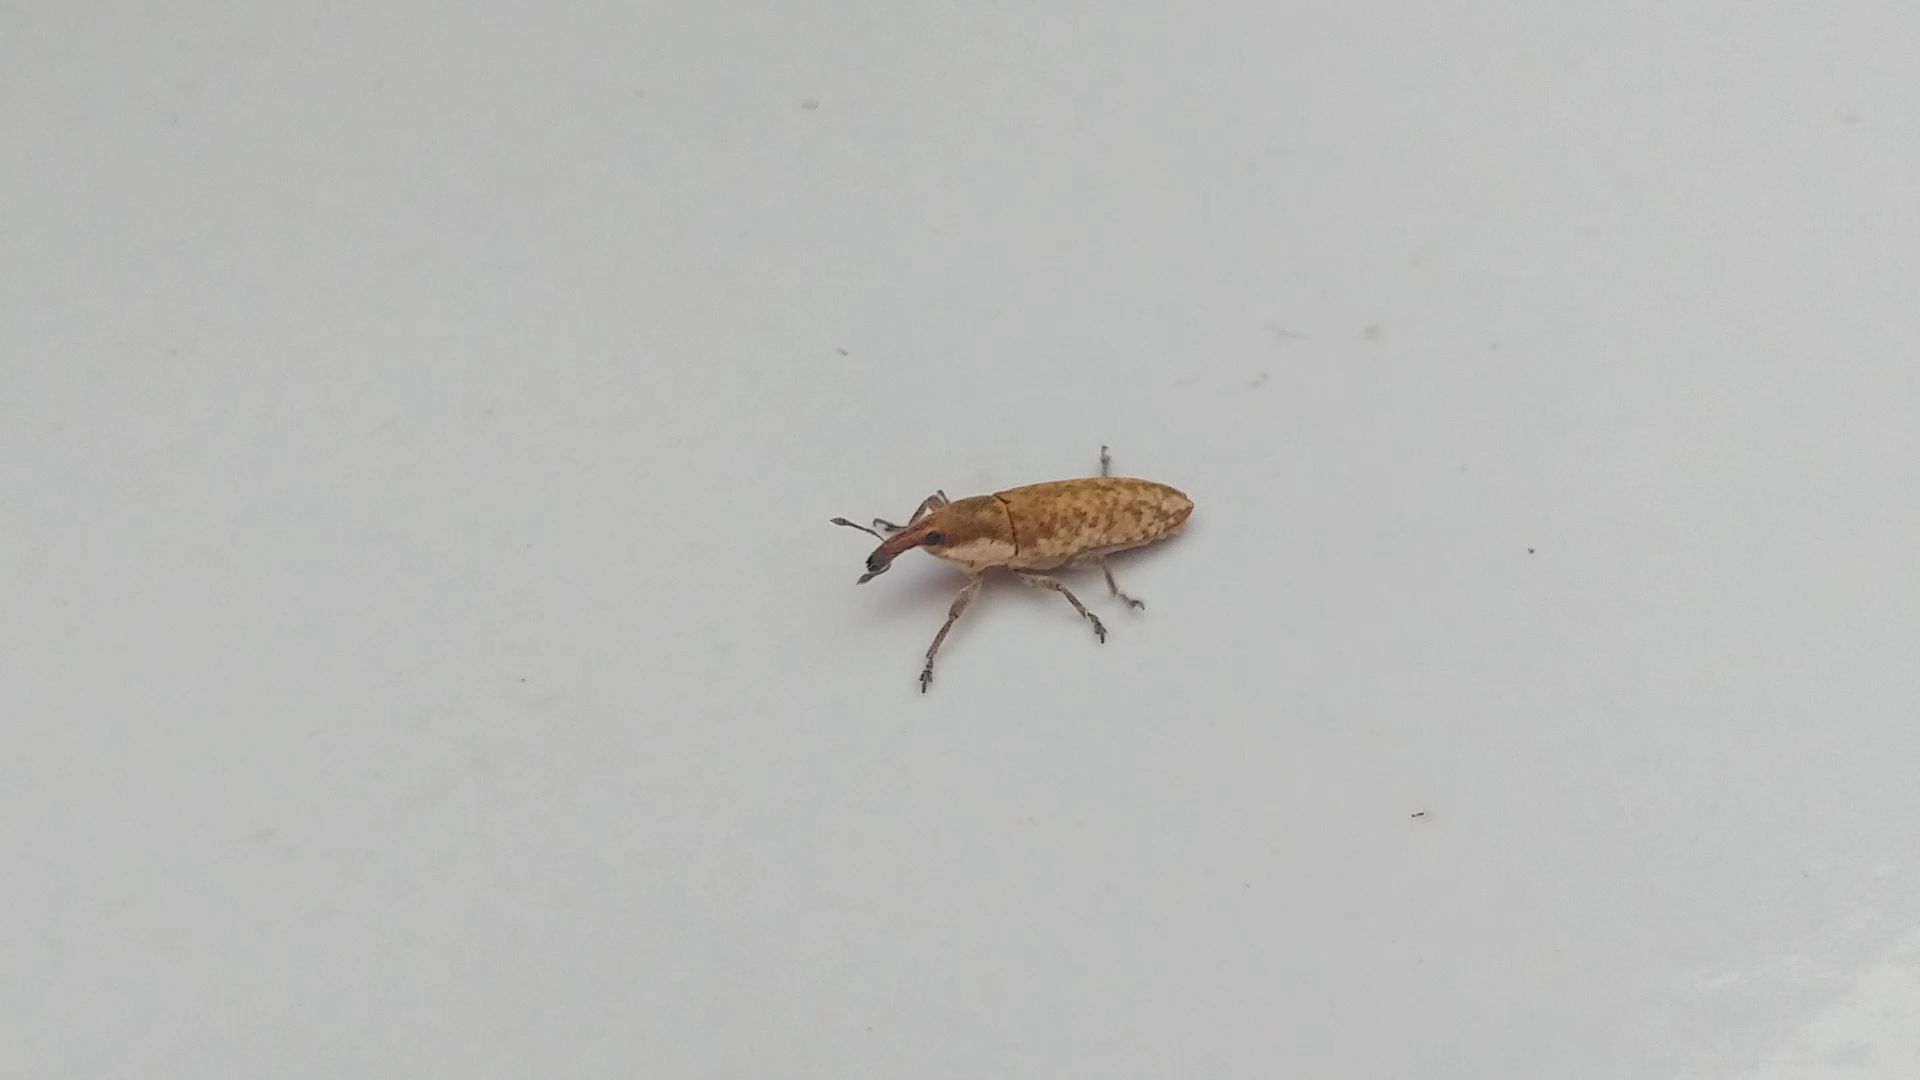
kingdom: Animalia
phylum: Arthropoda
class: Insecta
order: Coleoptera
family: Curculionidae
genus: Lixus
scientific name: Lixus subtilis
